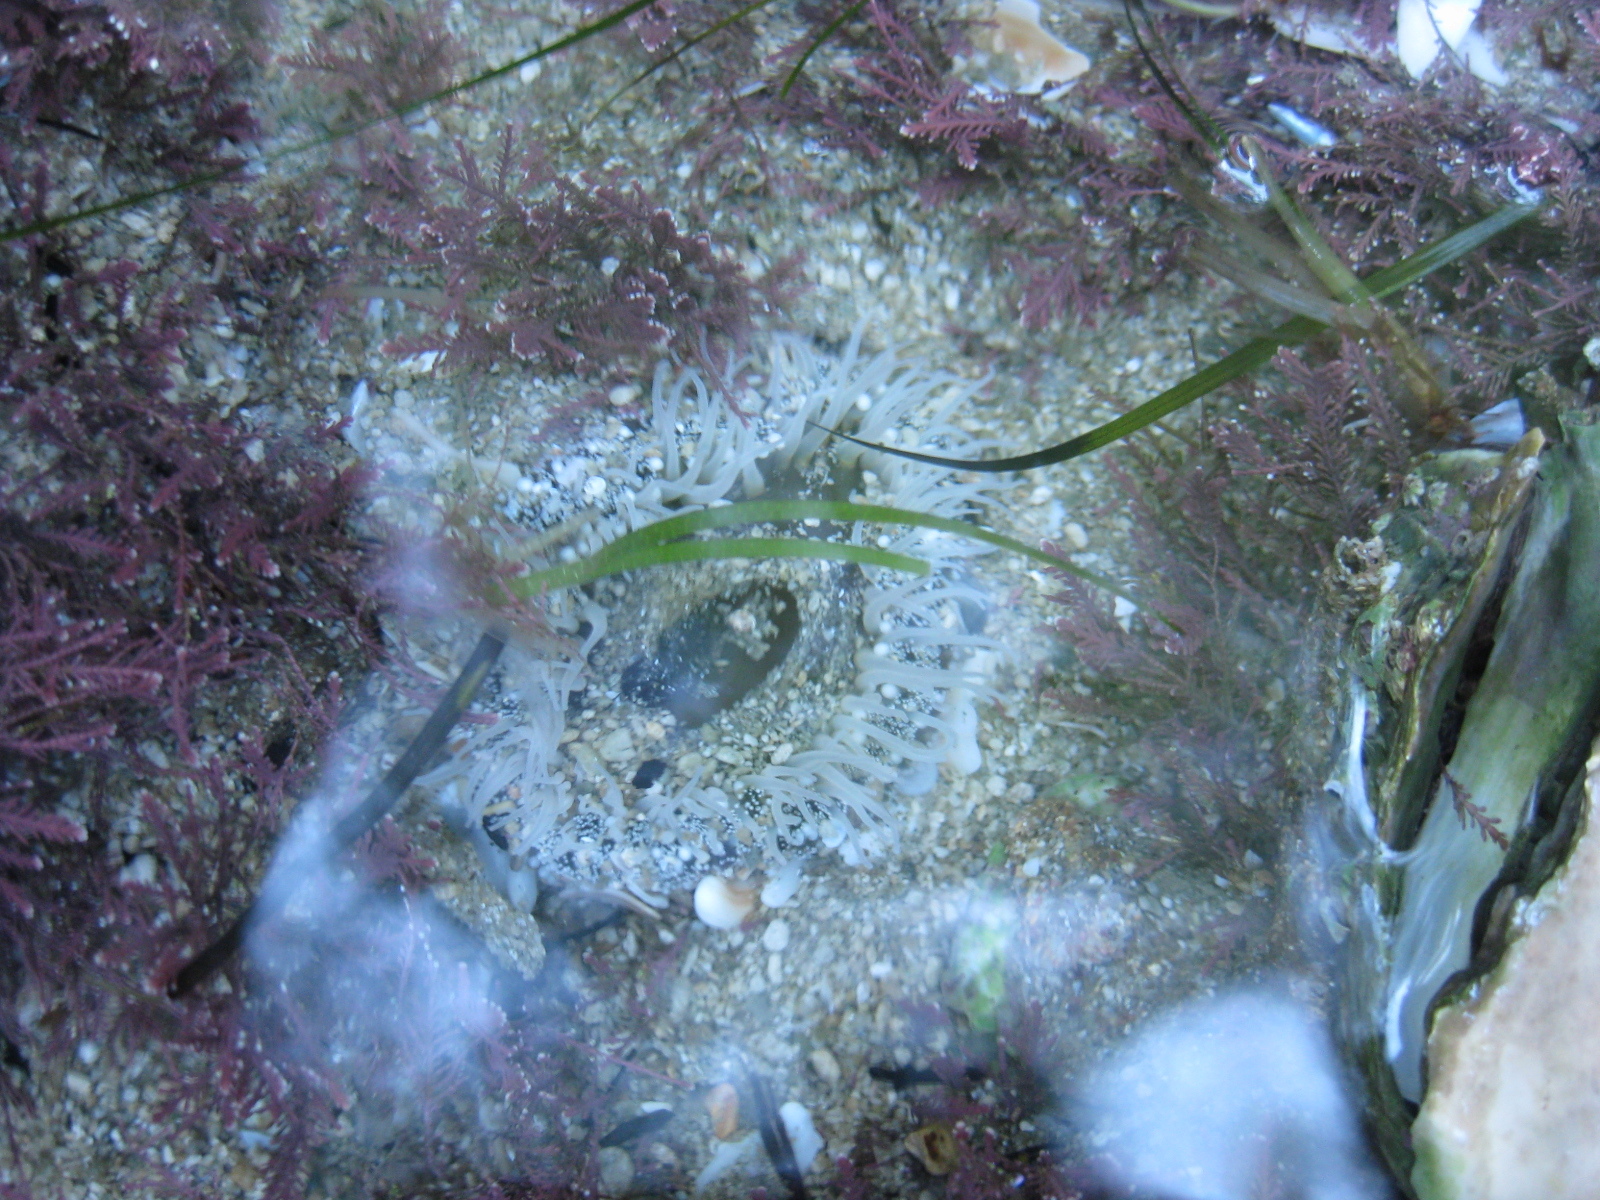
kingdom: Animalia
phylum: Cnidaria
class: Anthozoa
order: Actiniaria
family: Actiniidae
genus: Oulactis
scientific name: Oulactis magna
